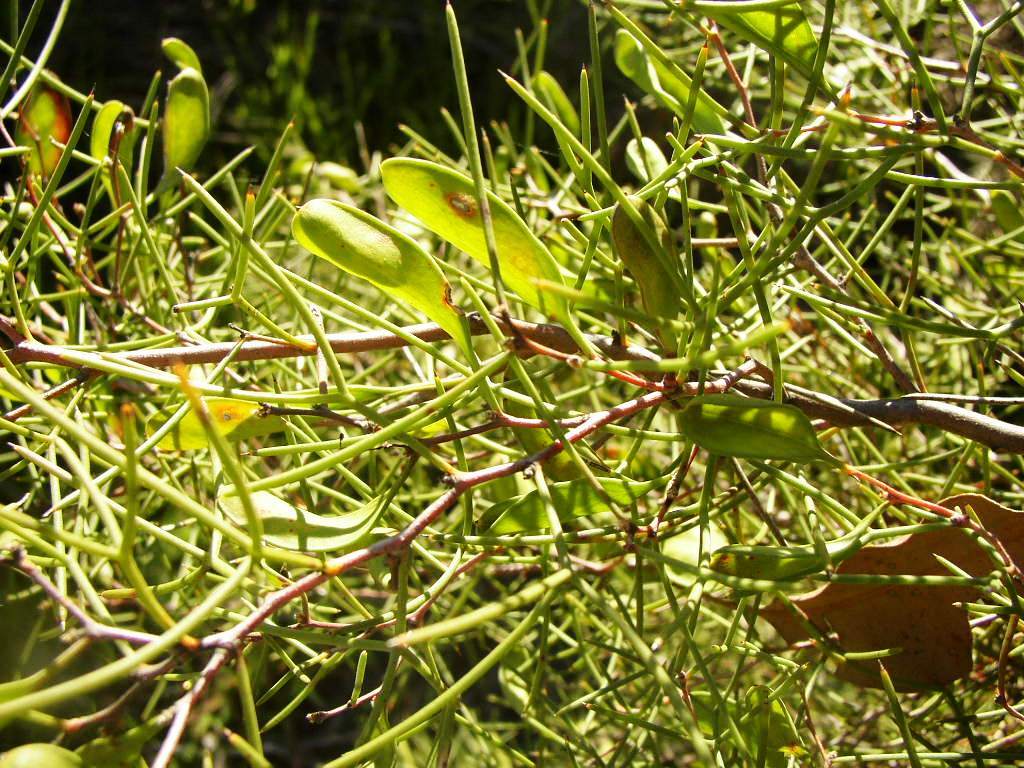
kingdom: Plantae
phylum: Tracheophyta
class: Magnoliopsida
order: Proteales
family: Proteaceae
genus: Hakea
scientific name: Hakea trifurcata
